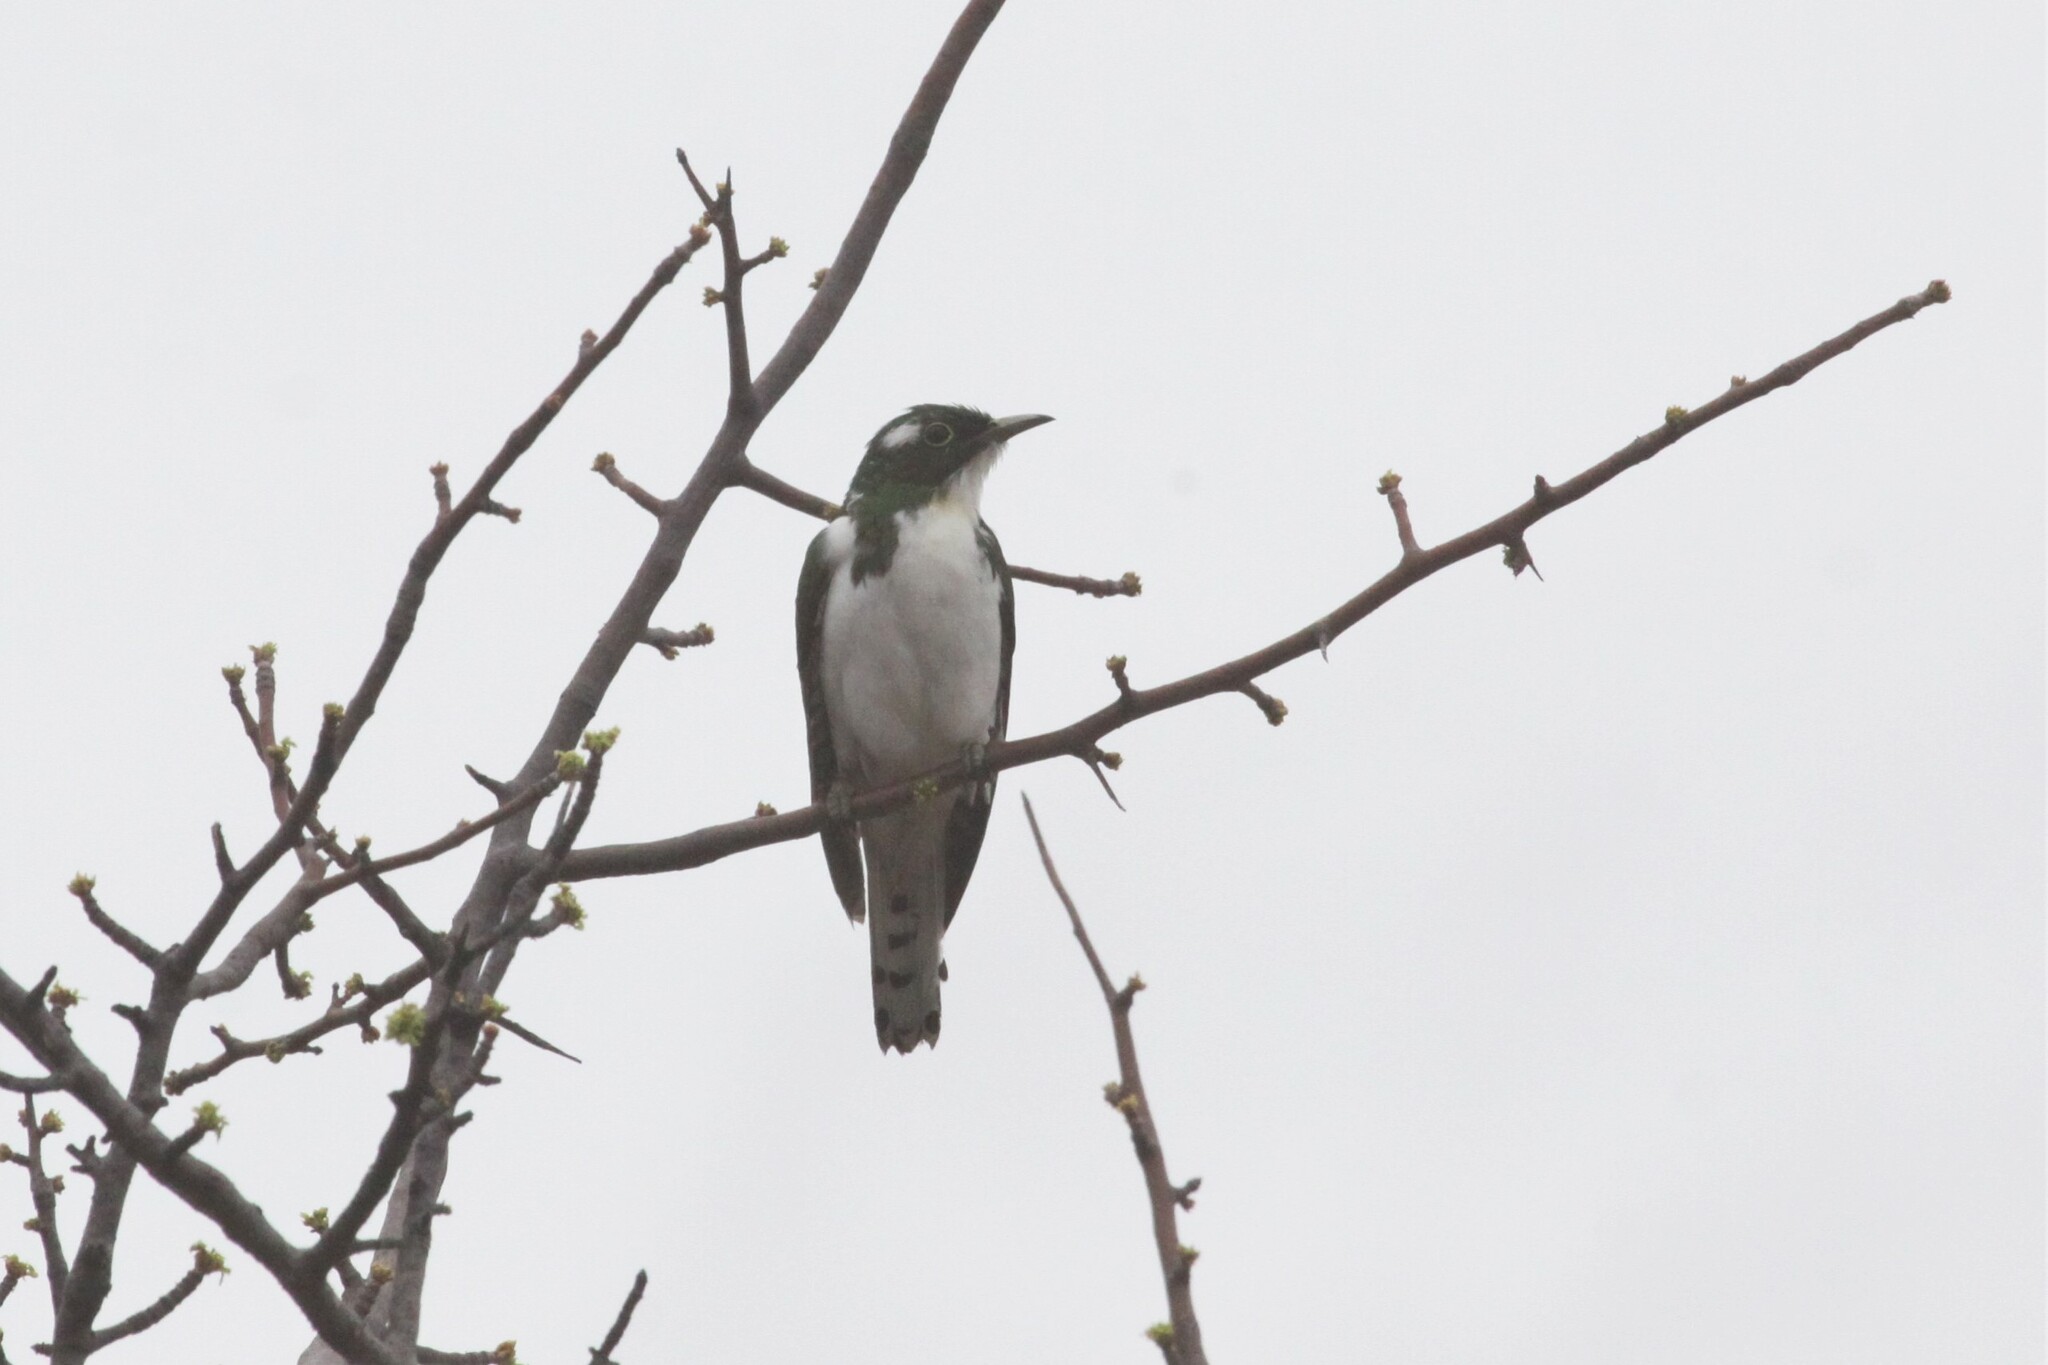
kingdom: Animalia
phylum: Chordata
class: Aves
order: Cuculiformes
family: Cuculidae
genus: Chrysococcyx
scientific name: Chrysococcyx klaas
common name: Klaas's cuckoo
